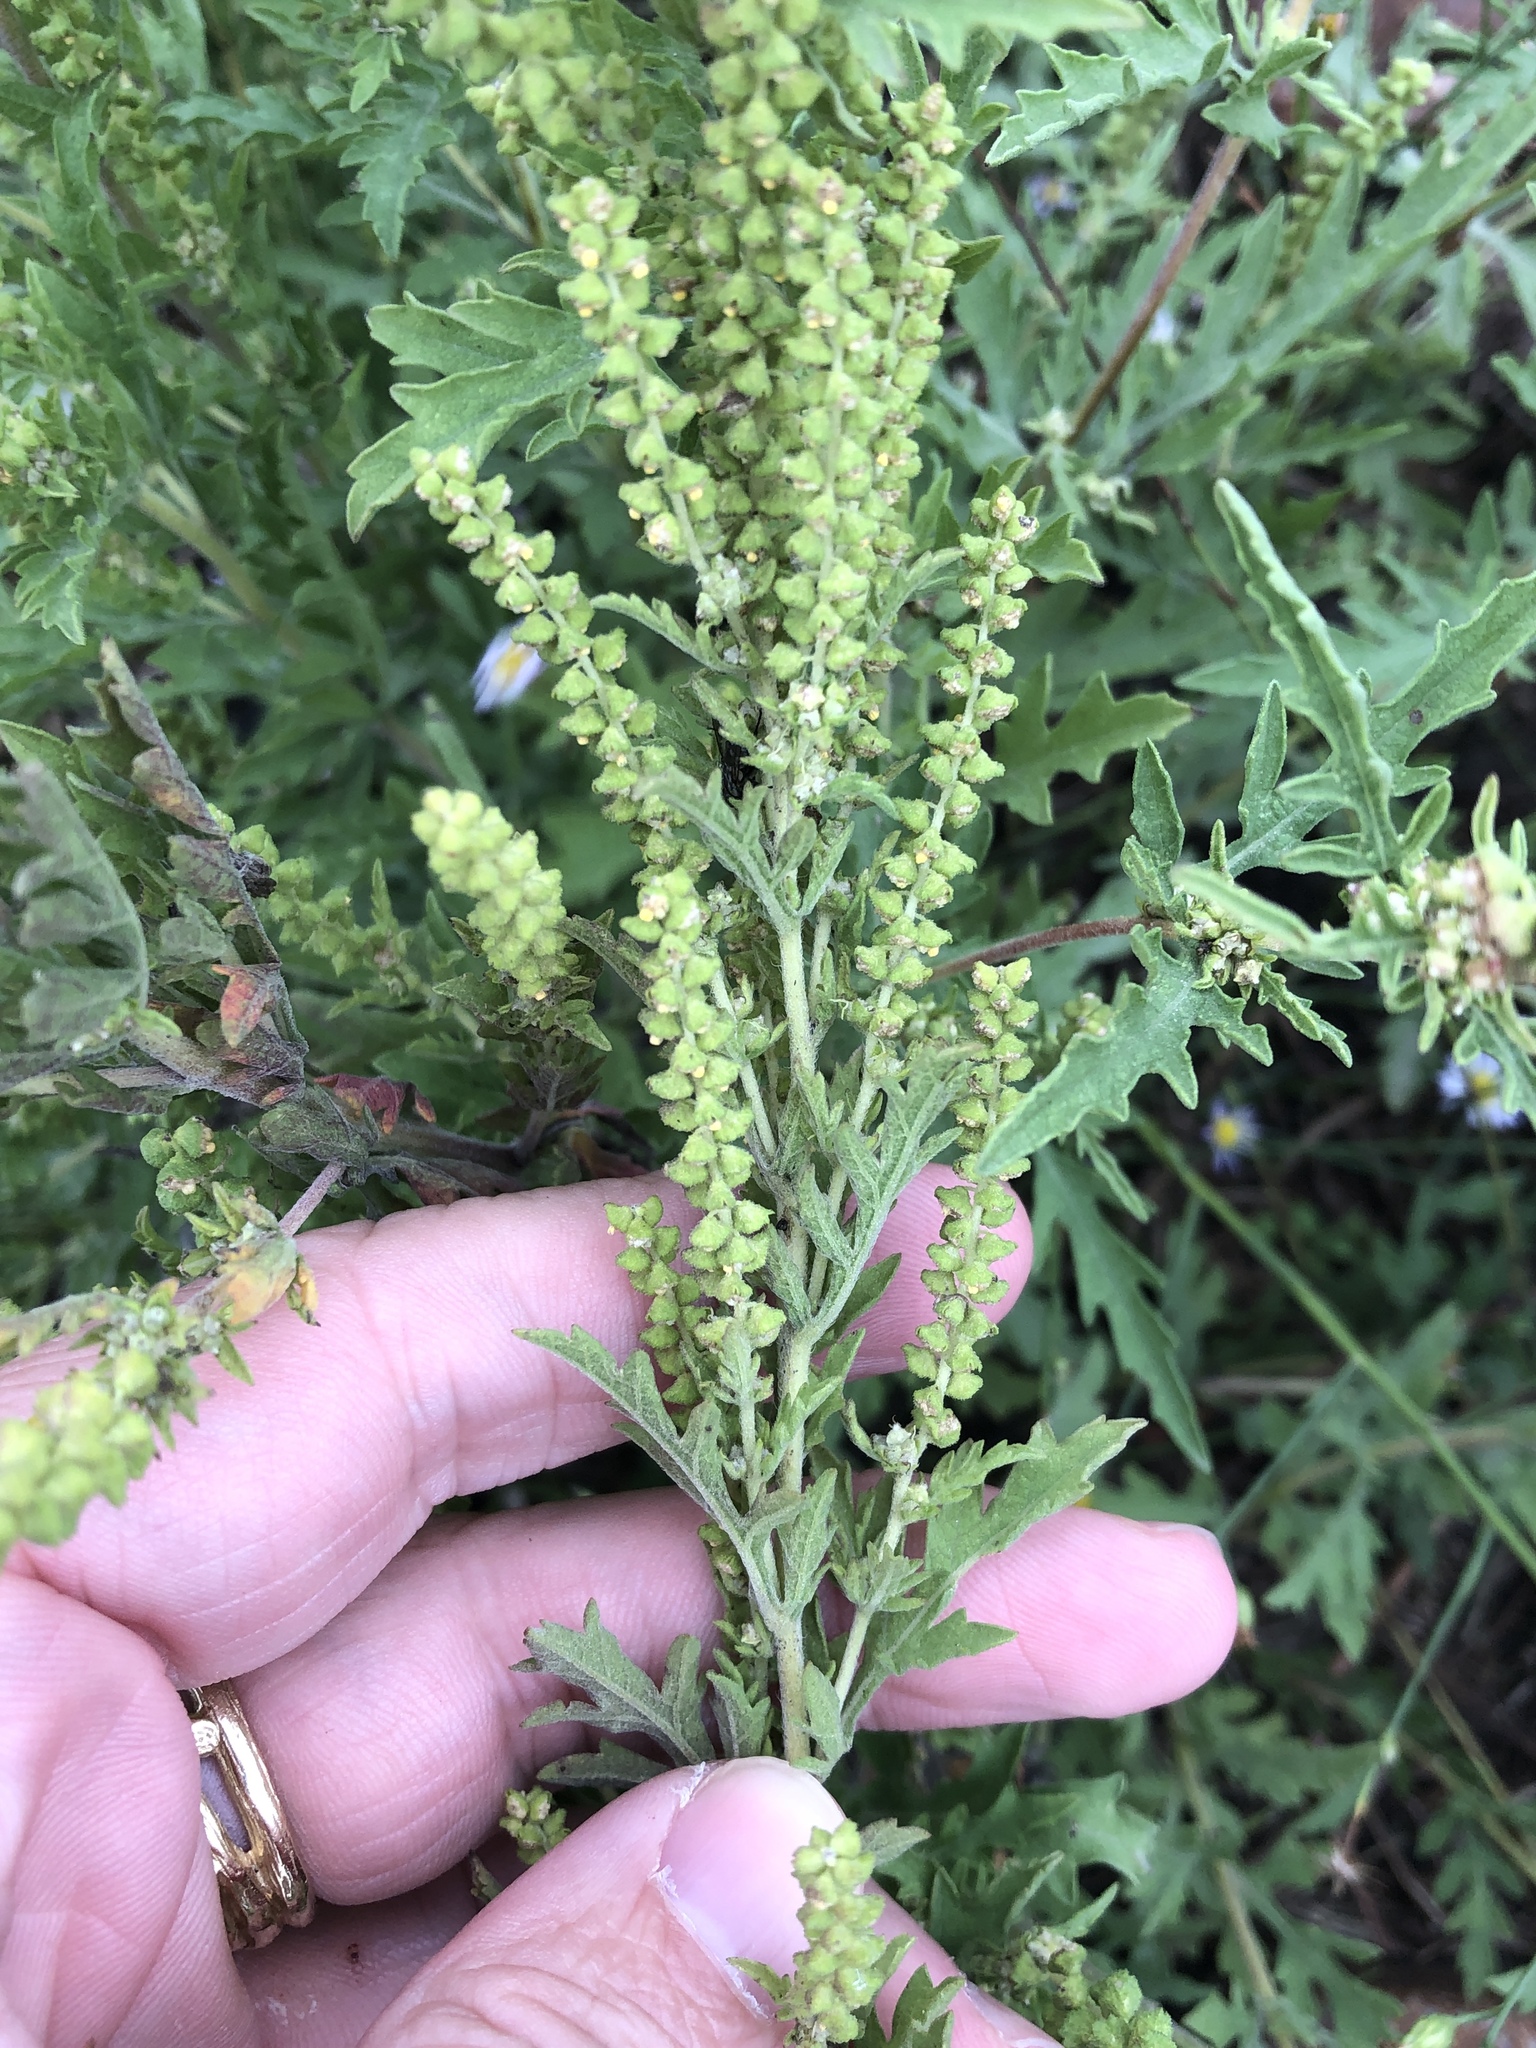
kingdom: Plantae
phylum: Tracheophyta
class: Magnoliopsida
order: Asterales
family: Asteraceae
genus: Ambrosia
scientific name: Ambrosia psilostachya
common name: Perennial ragweed
